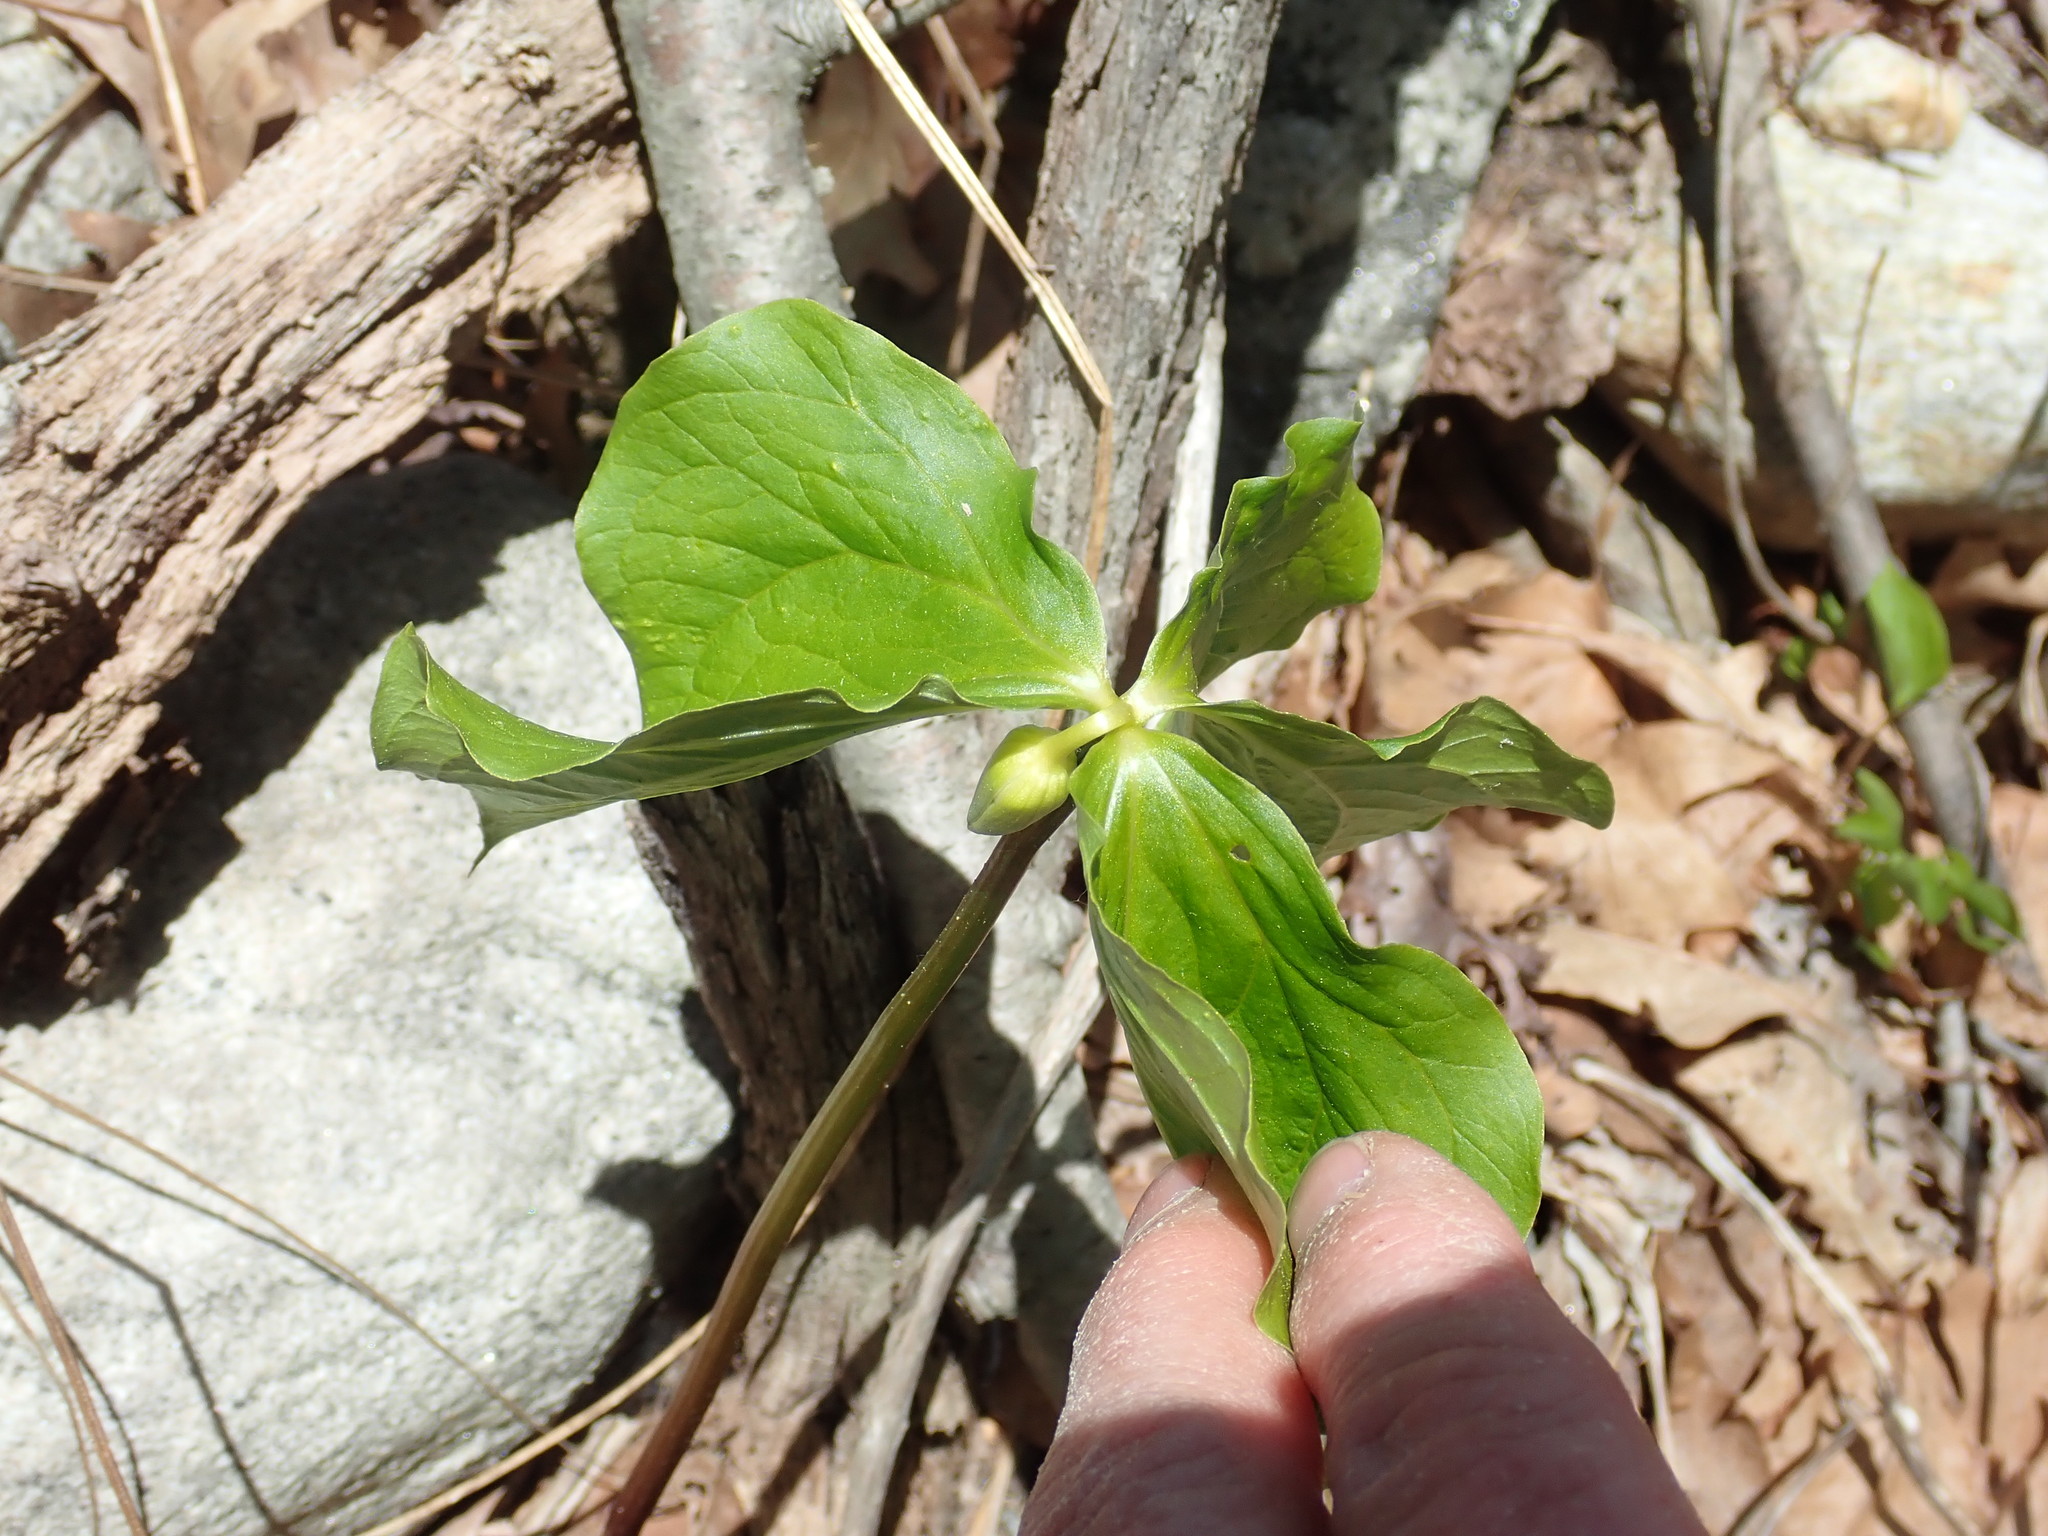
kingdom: Plantae
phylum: Tracheophyta
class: Liliopsida
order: Liliales
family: Melanthiaceae
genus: Trillium
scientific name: Trillium cernuum
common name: Nodding trillium
